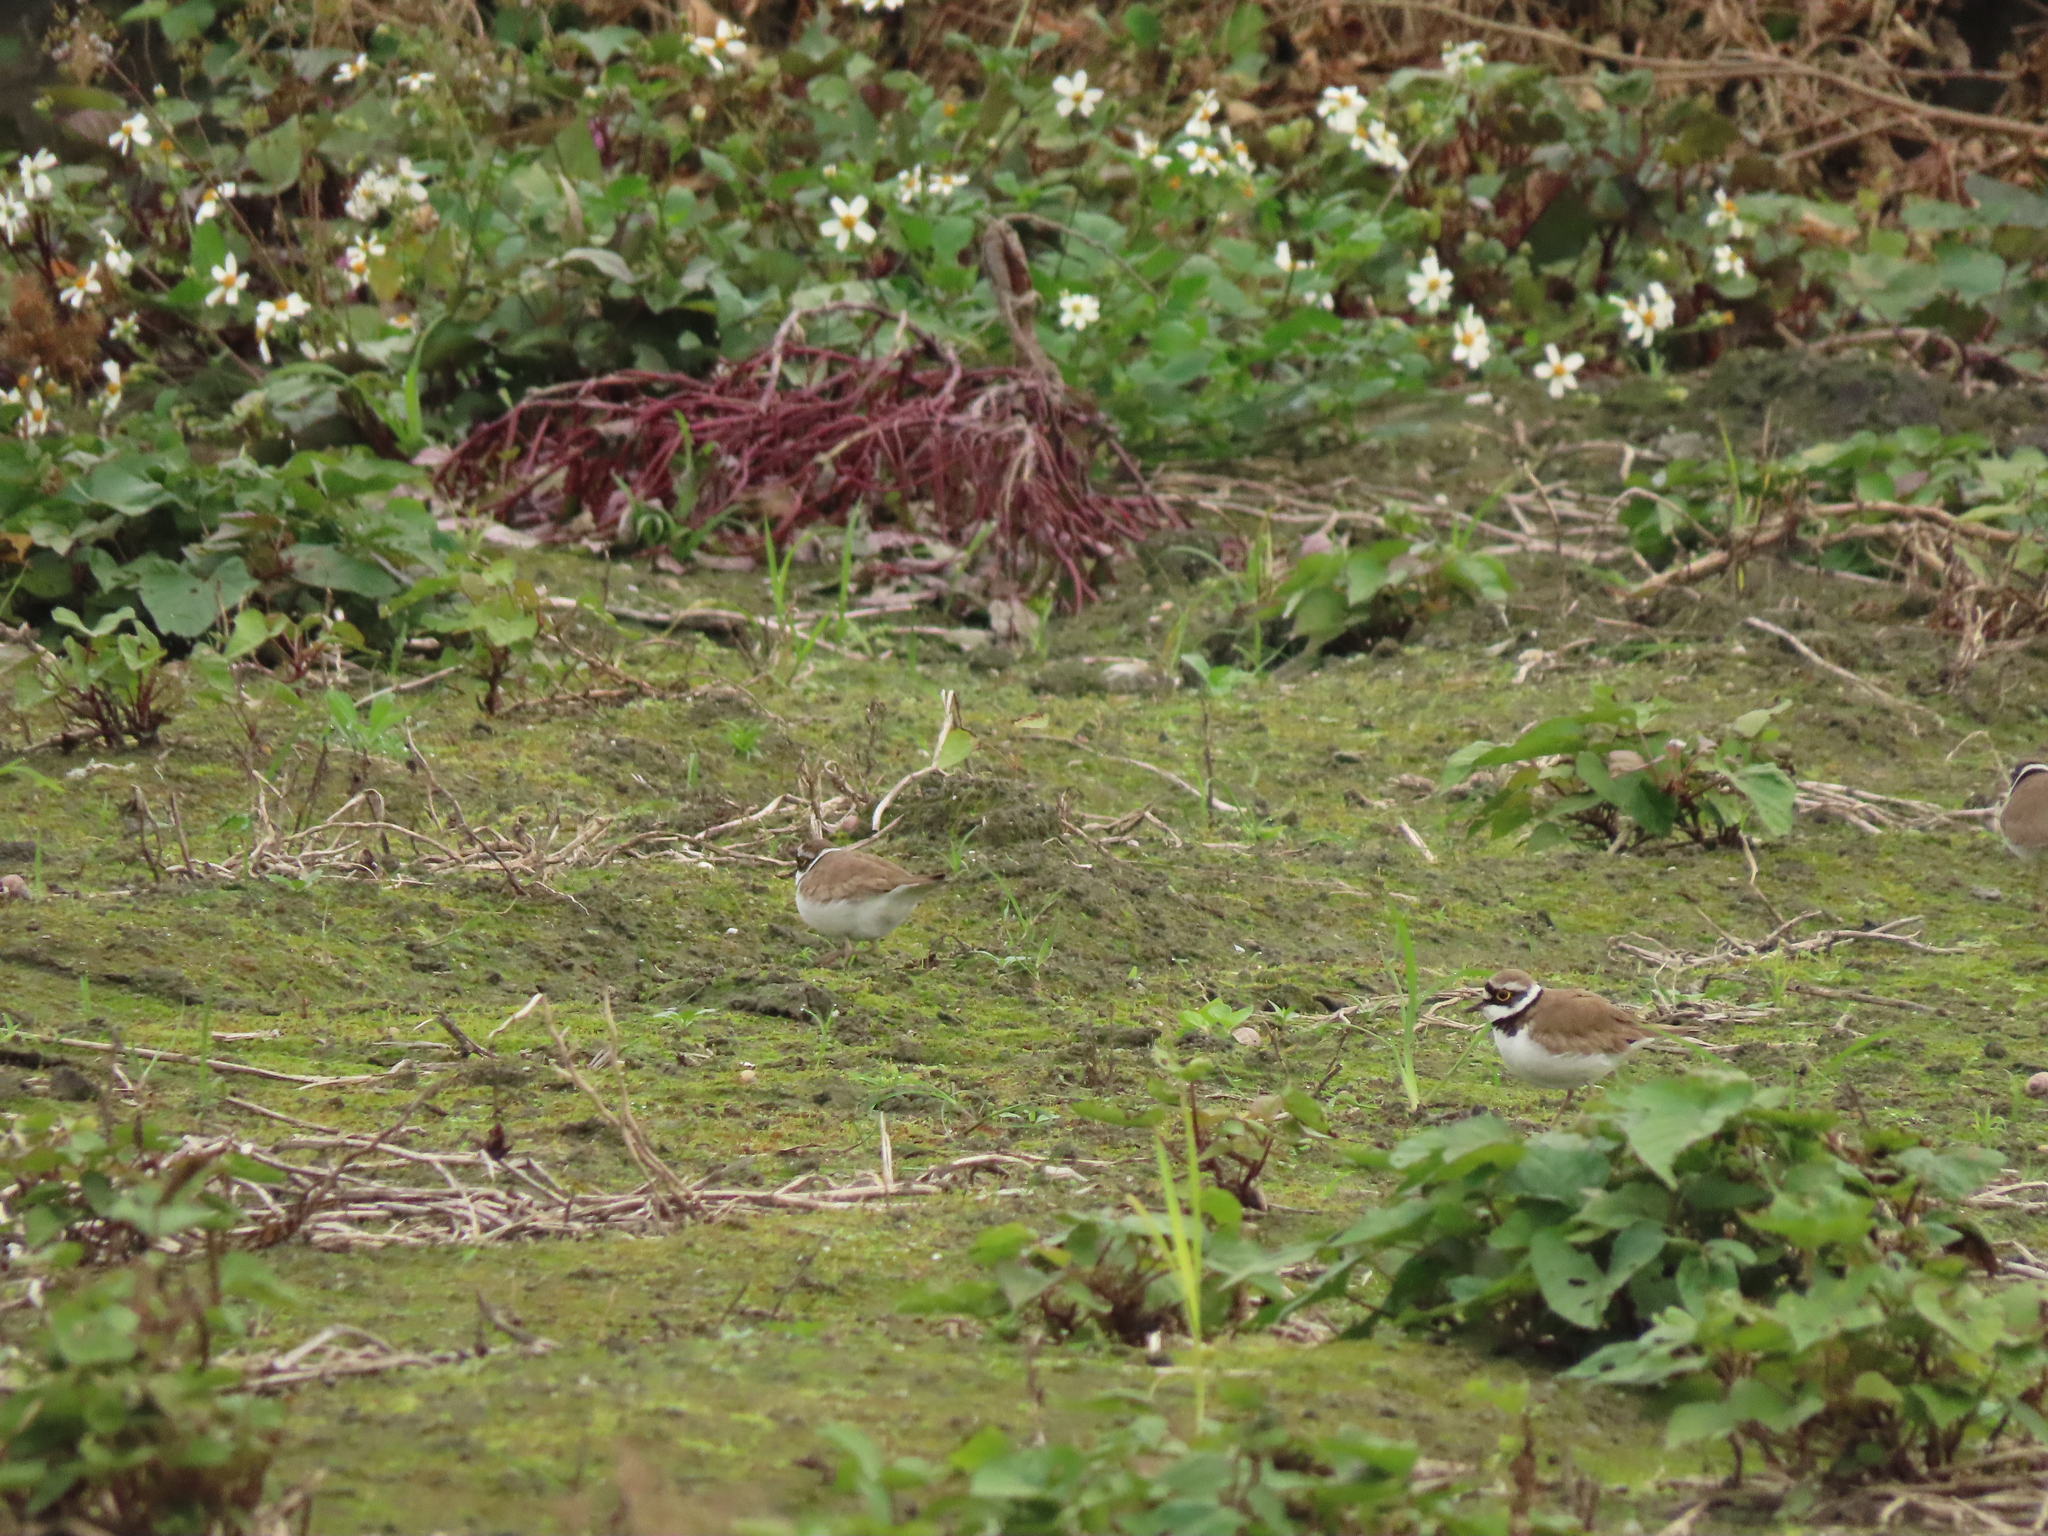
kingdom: Animalia
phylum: Chordata
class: Aves
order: Charadriiformes
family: Charadriidae
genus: Charadrius
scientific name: Charadrius dubius
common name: Little ringed plover
